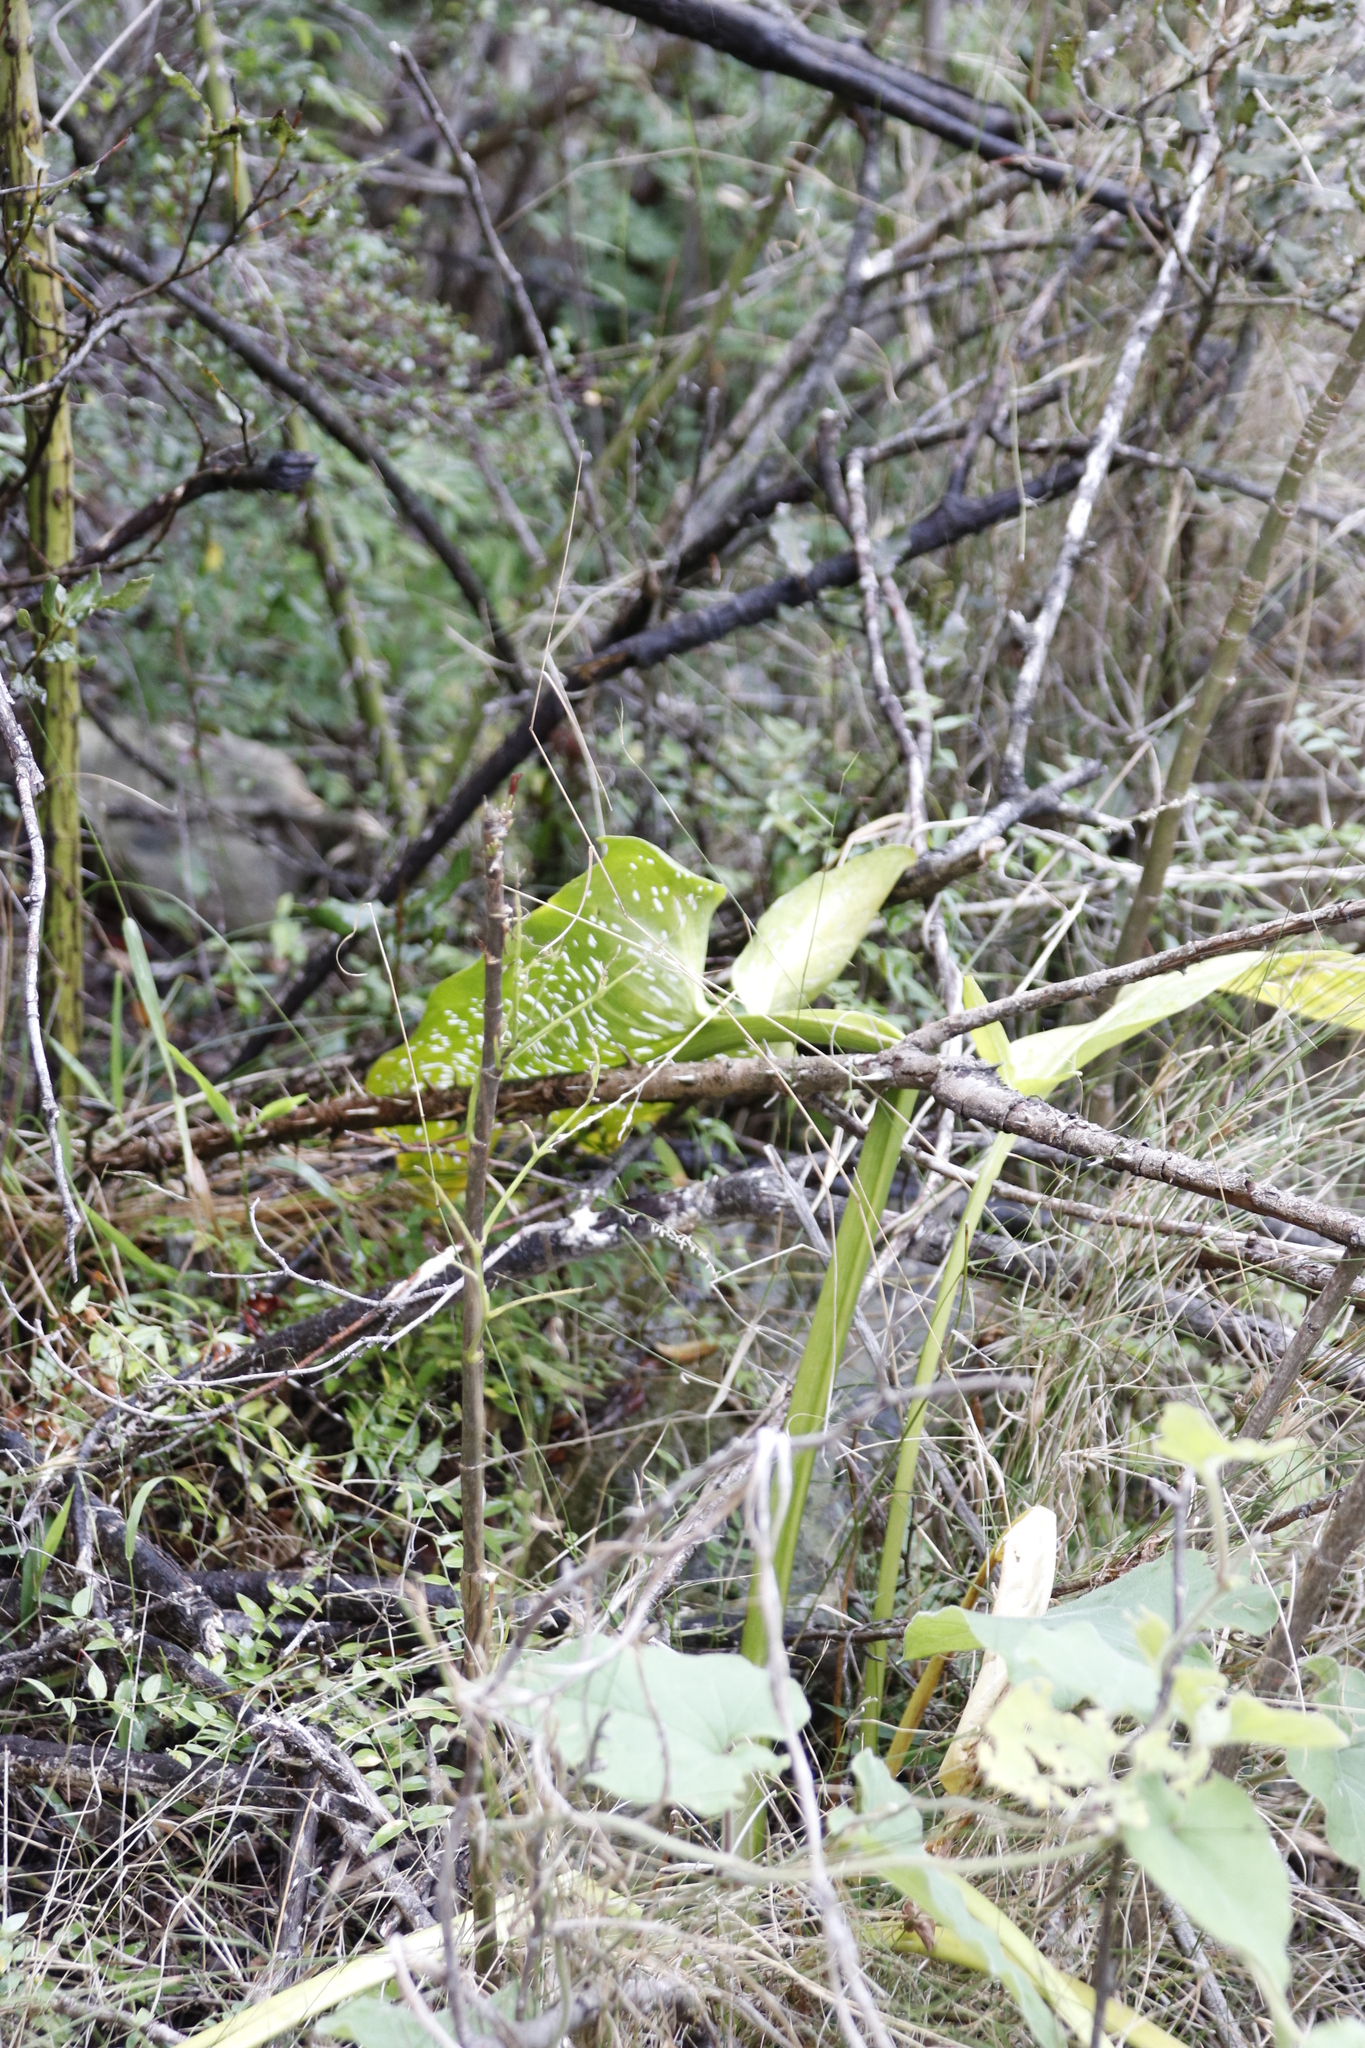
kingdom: Plantae
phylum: Tracheophyta
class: Liliopsida
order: Alismatales
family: Araceae
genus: Zantedeschia
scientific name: Zantedeschia albomaculata
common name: Spotted calla lily
